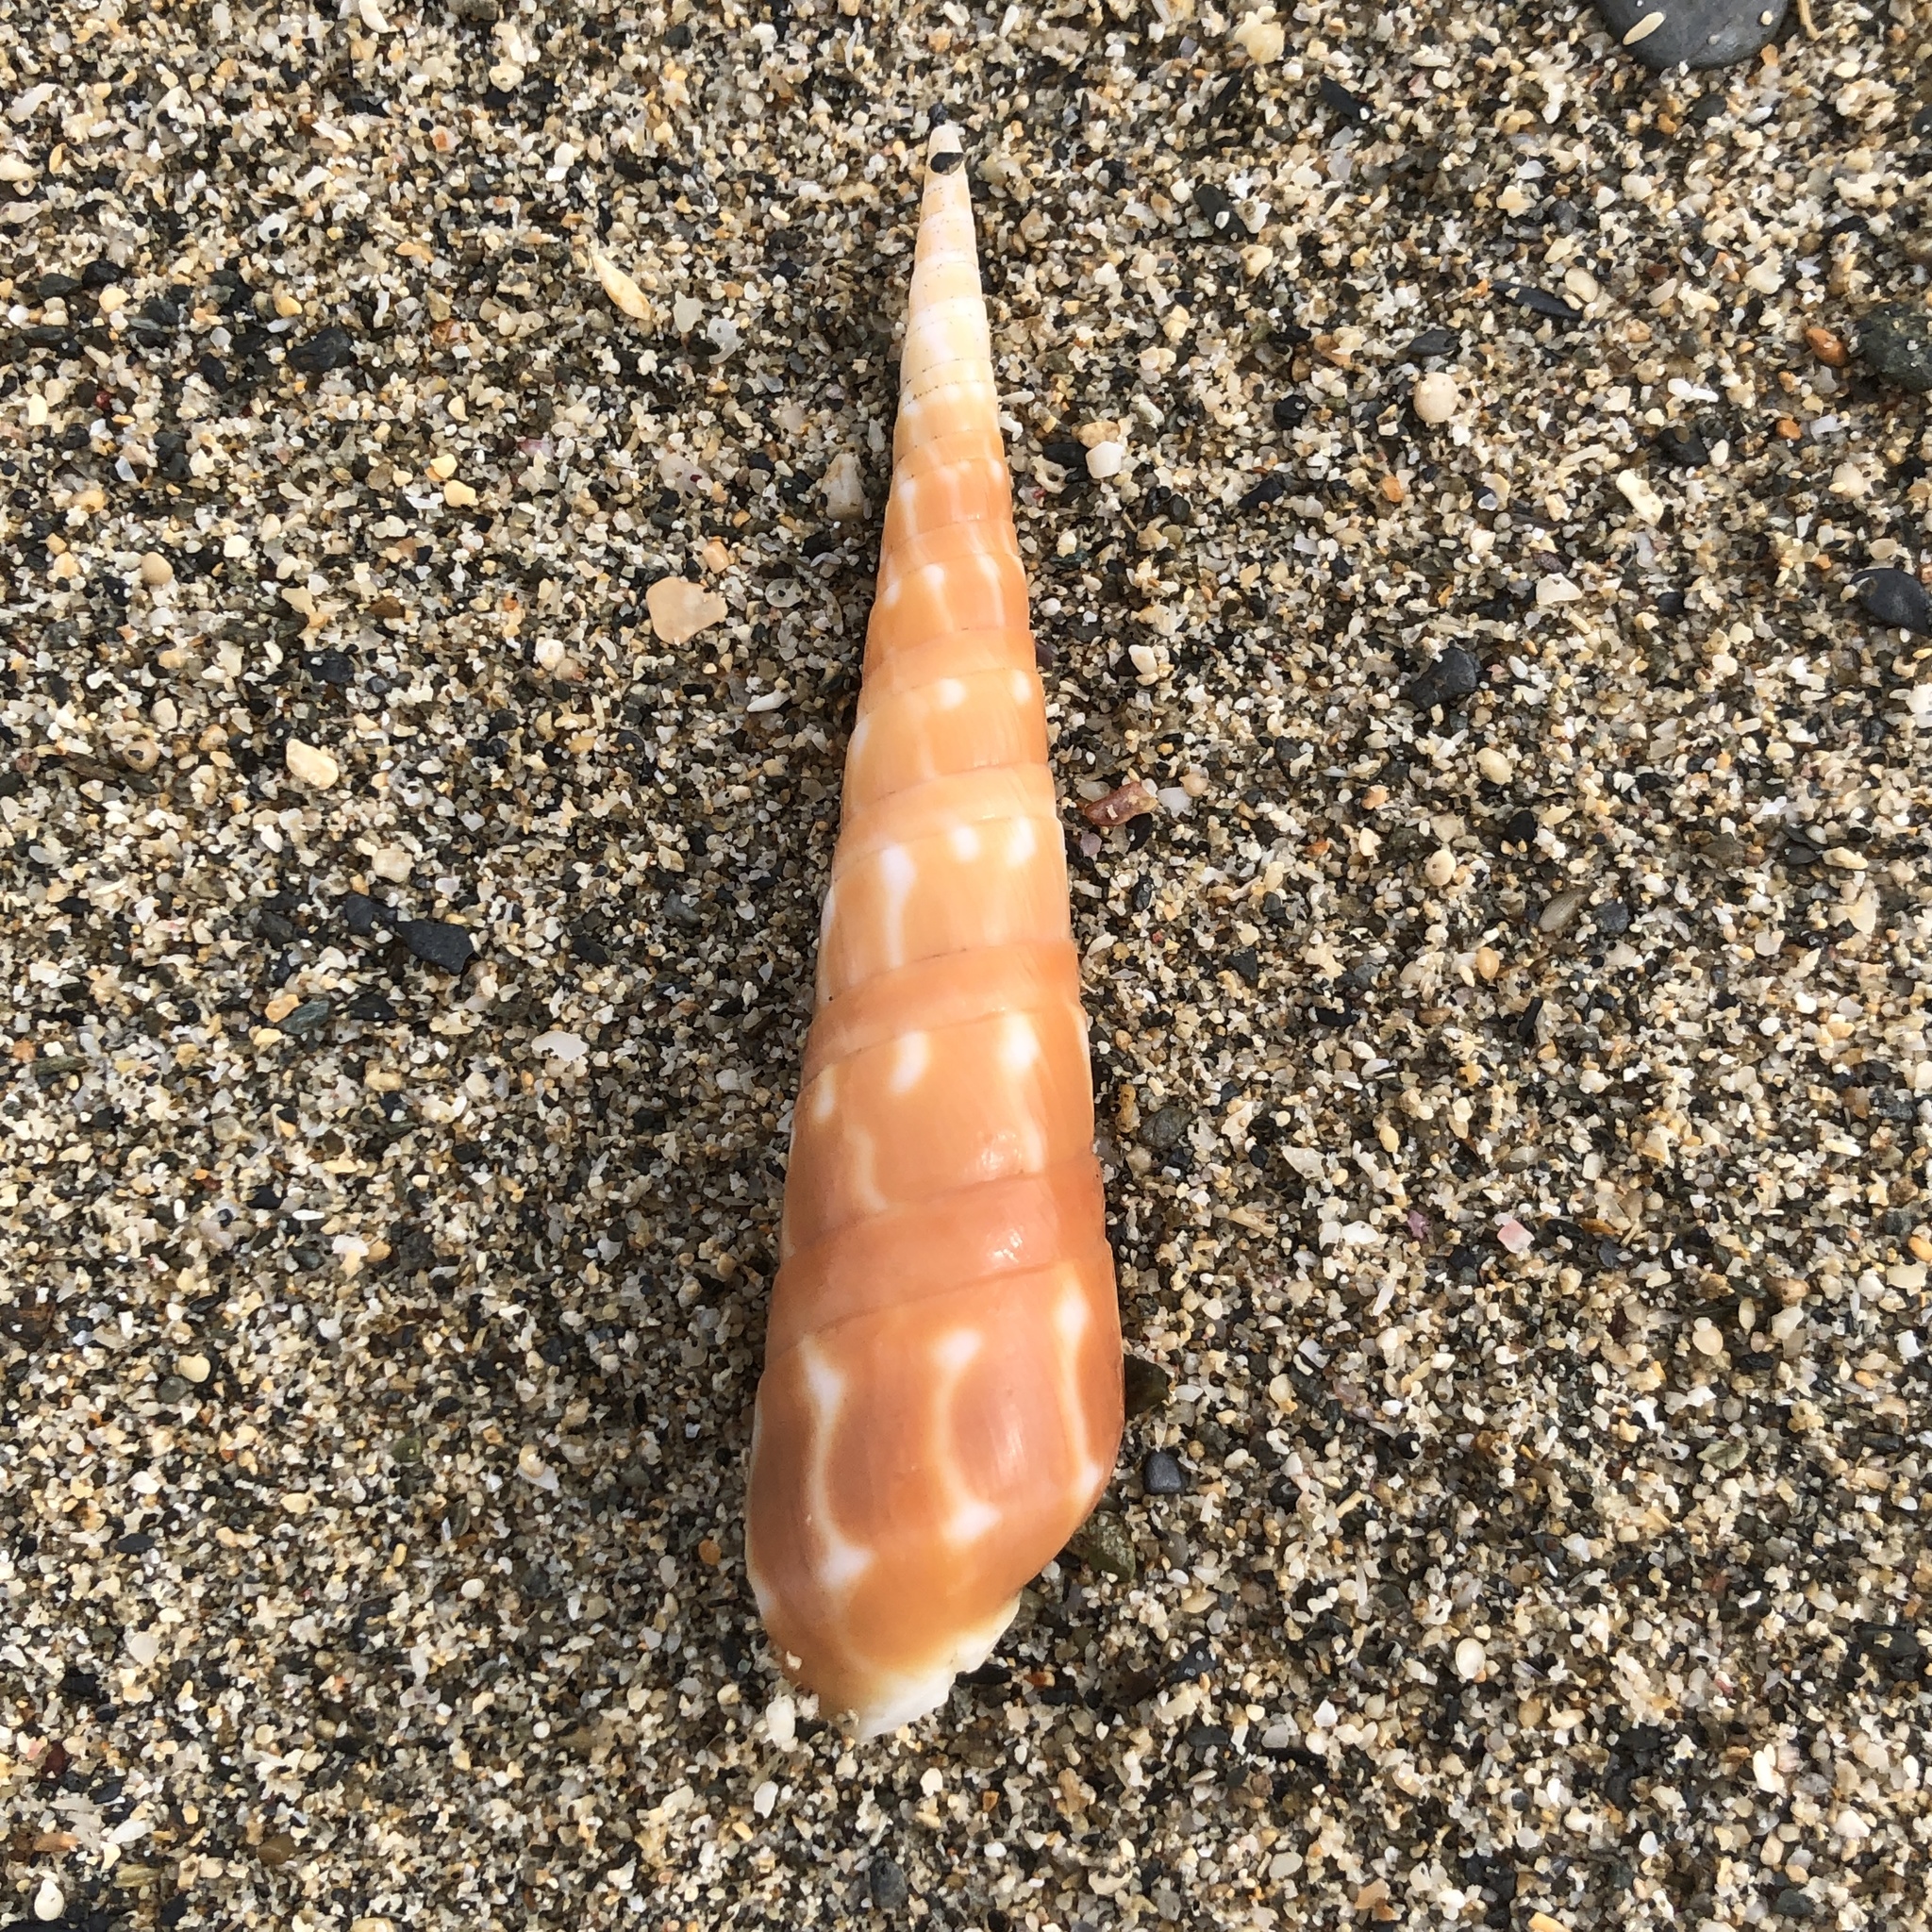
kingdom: Animalia
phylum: Mollusca
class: Gastropoda
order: Neogastropoda
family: Terebridae
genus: Oxymeris
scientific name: Oxymeris dimidiata
